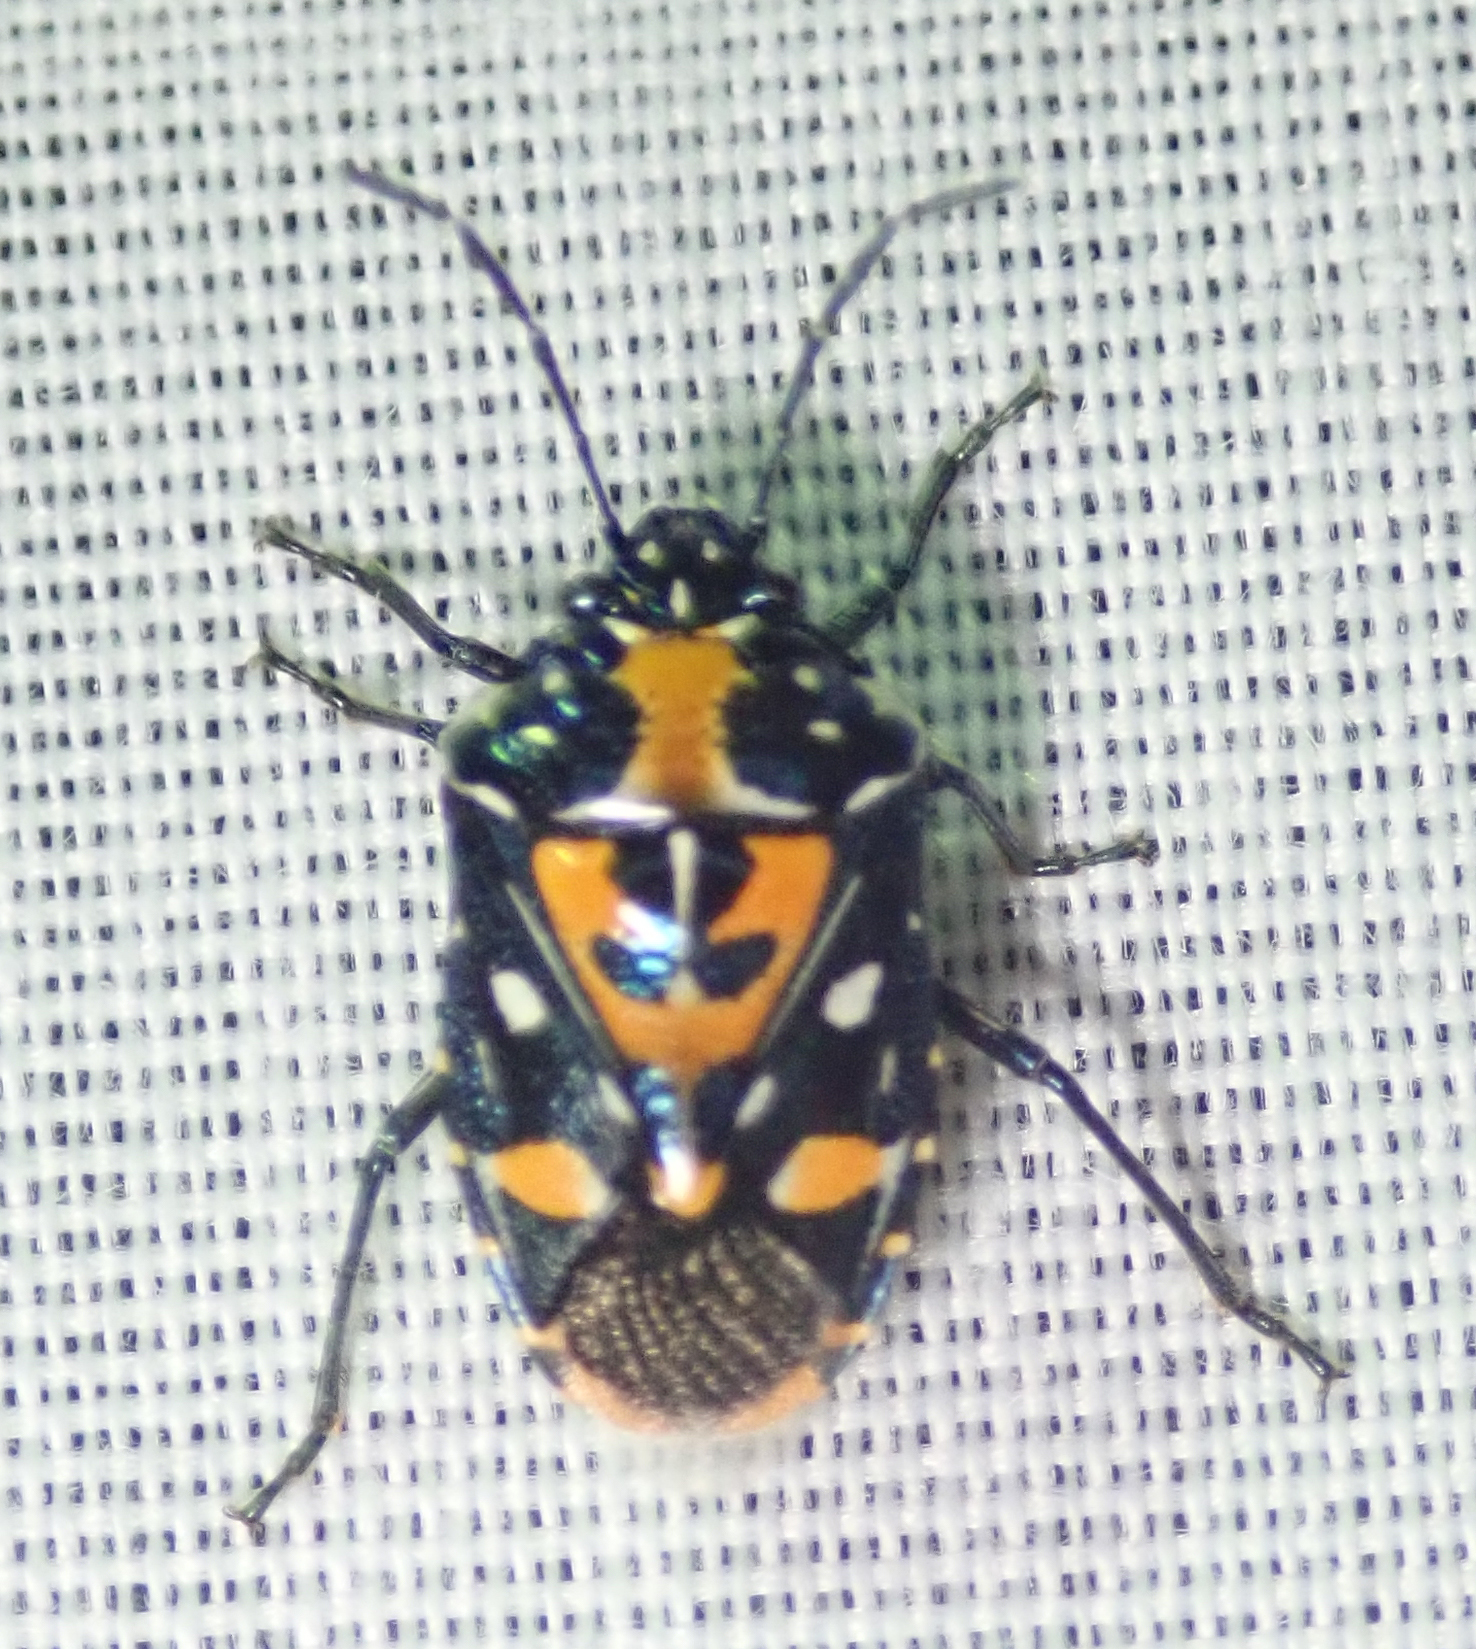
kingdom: Animalia
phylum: Arthropoda
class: Insecta
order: Hemiptera
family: Pentatomidae
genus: Stenozygum
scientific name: Stenozygum alienatum
